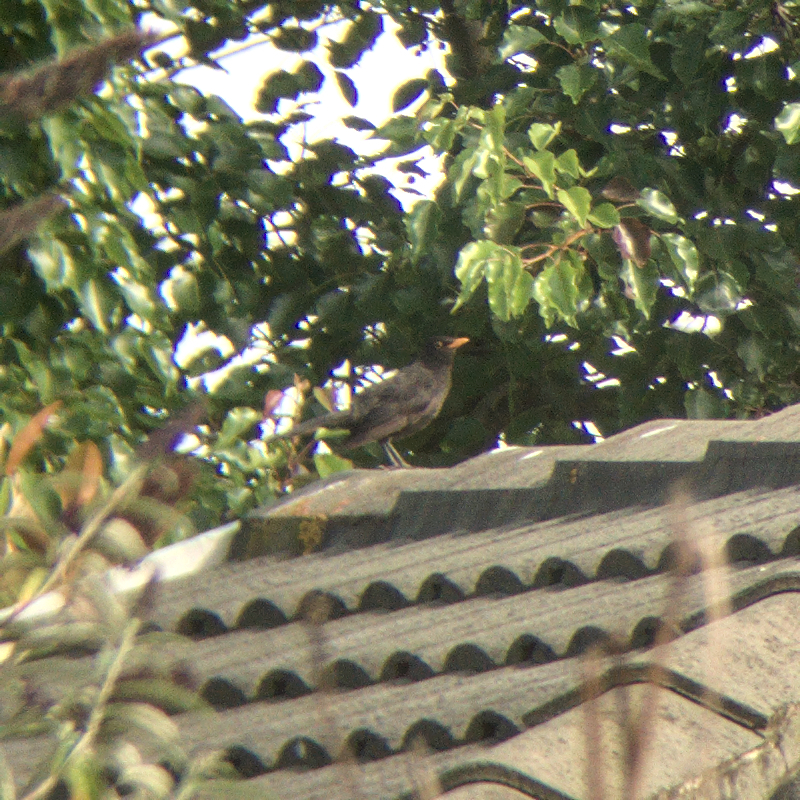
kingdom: Animalia
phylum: Chordata
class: Aves
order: Passeriformes
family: Turdidae
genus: Turdus
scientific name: Turdus merula
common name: Common blackbird
